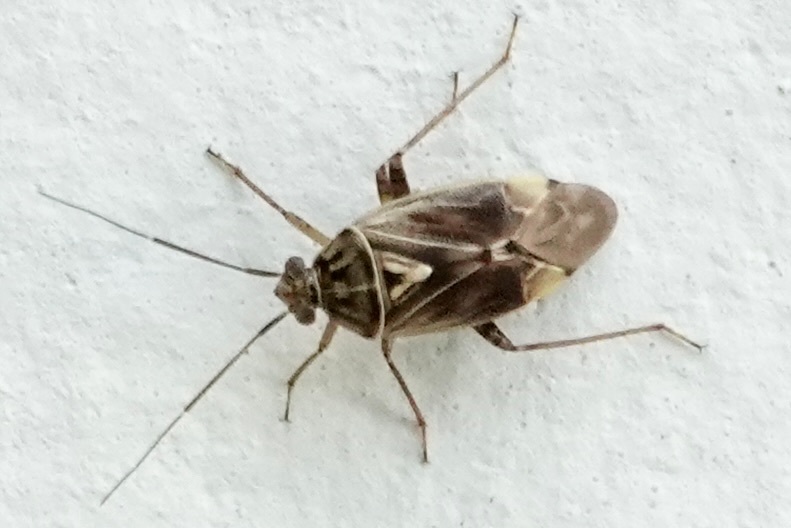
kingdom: Animalia
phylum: Arthropoda
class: Insecta
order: Hemiptera
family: Miridae
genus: Lygus
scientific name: Lygus lineolaris
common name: North american tarnished plant bug
